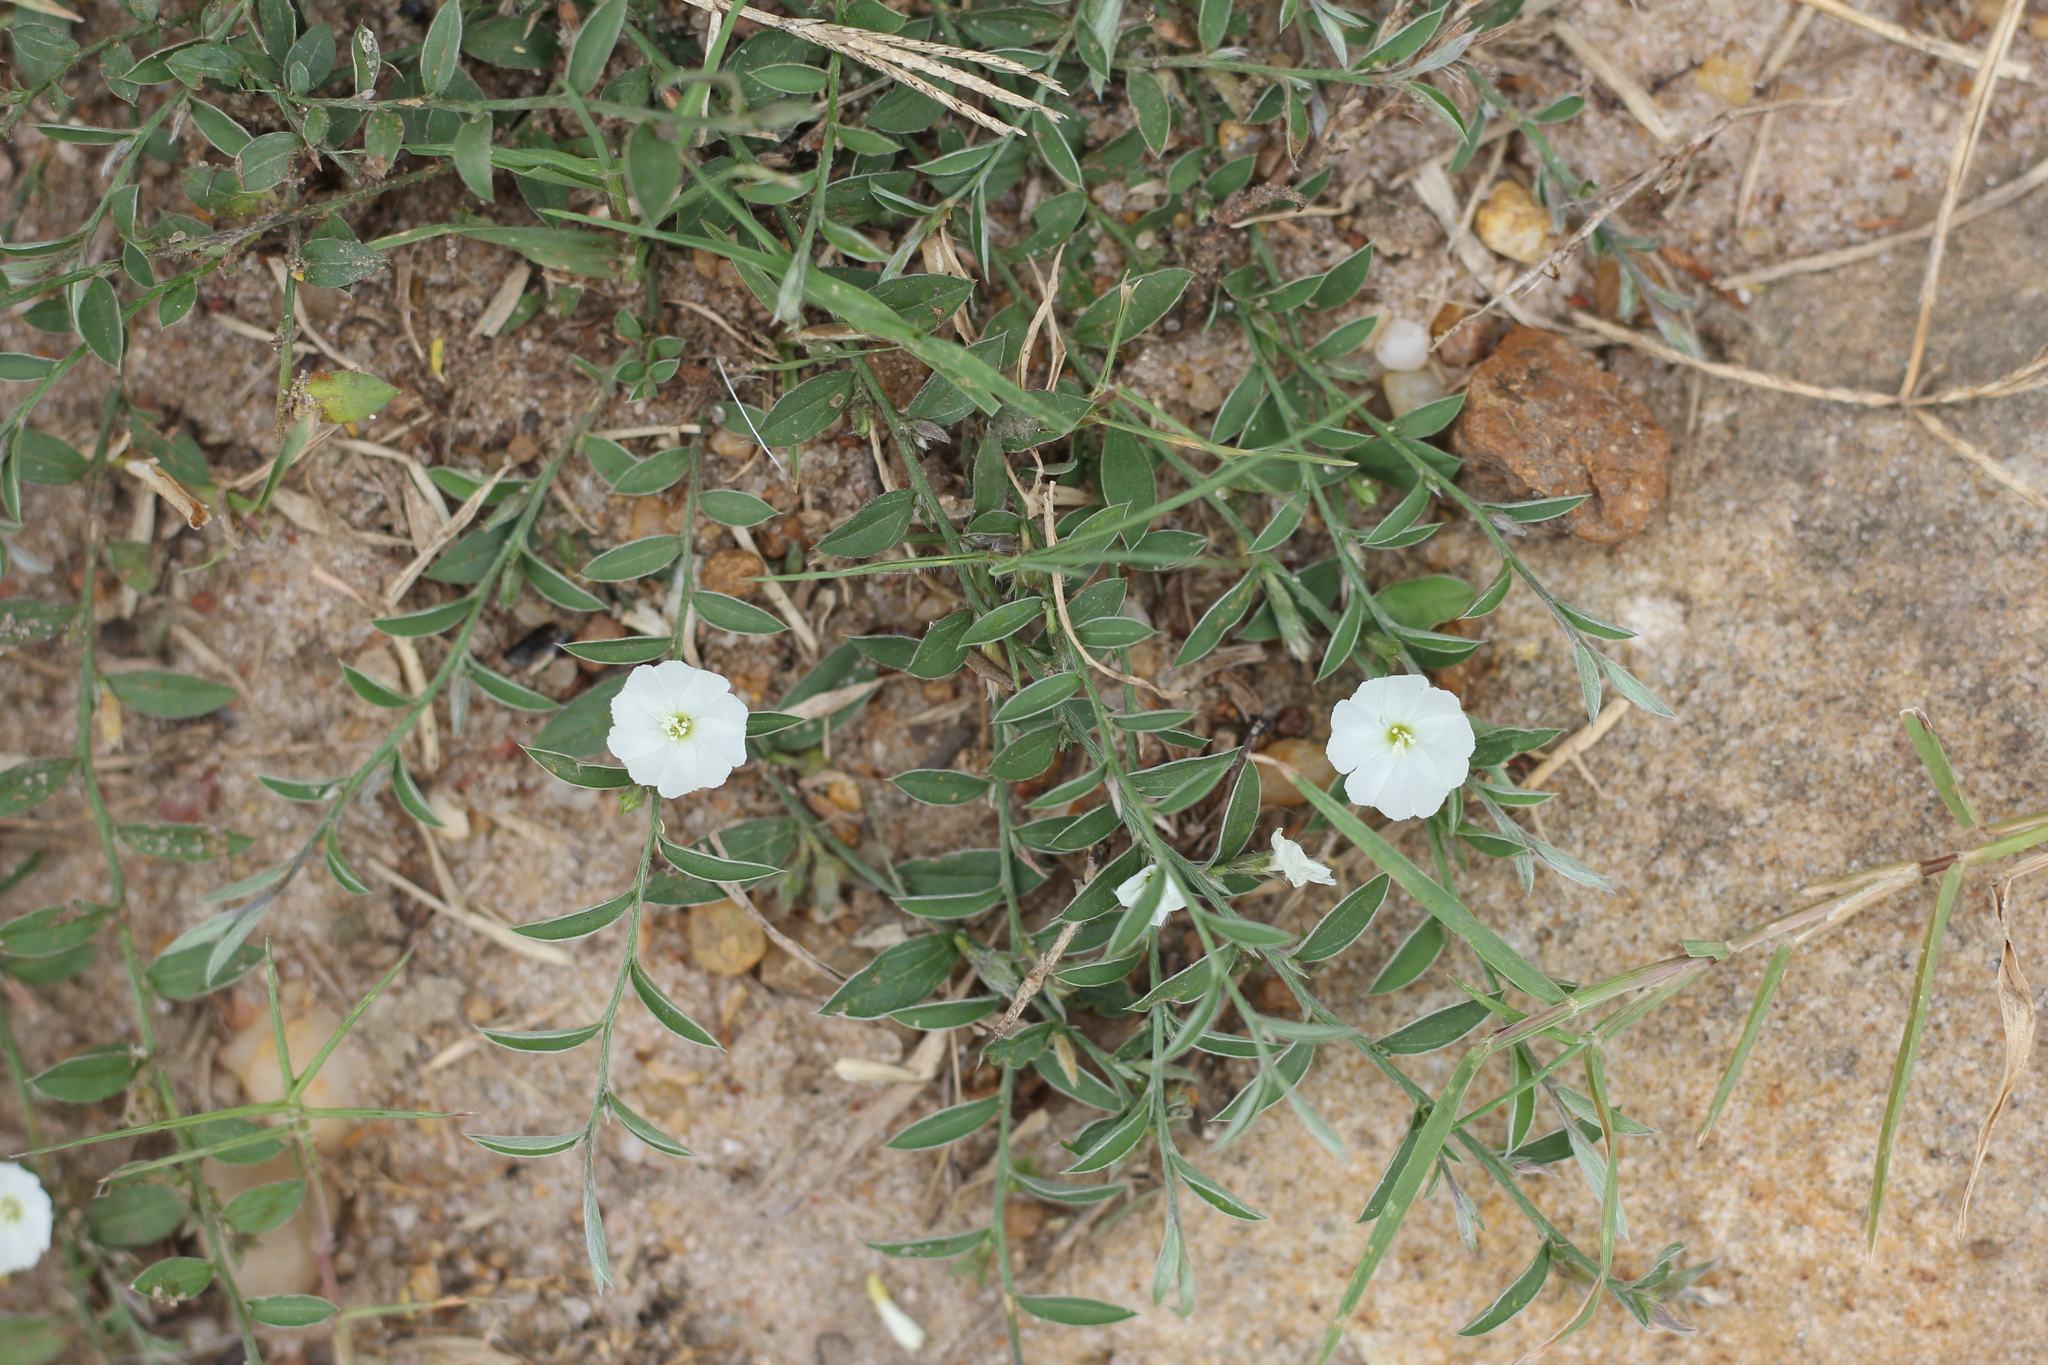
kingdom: Plantae
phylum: Tracheophyta
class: Magnoliopsida
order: Solanales
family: Convolvulaceae
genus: Evolvulus
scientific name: Evolvulus sericeus
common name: Blue dots
